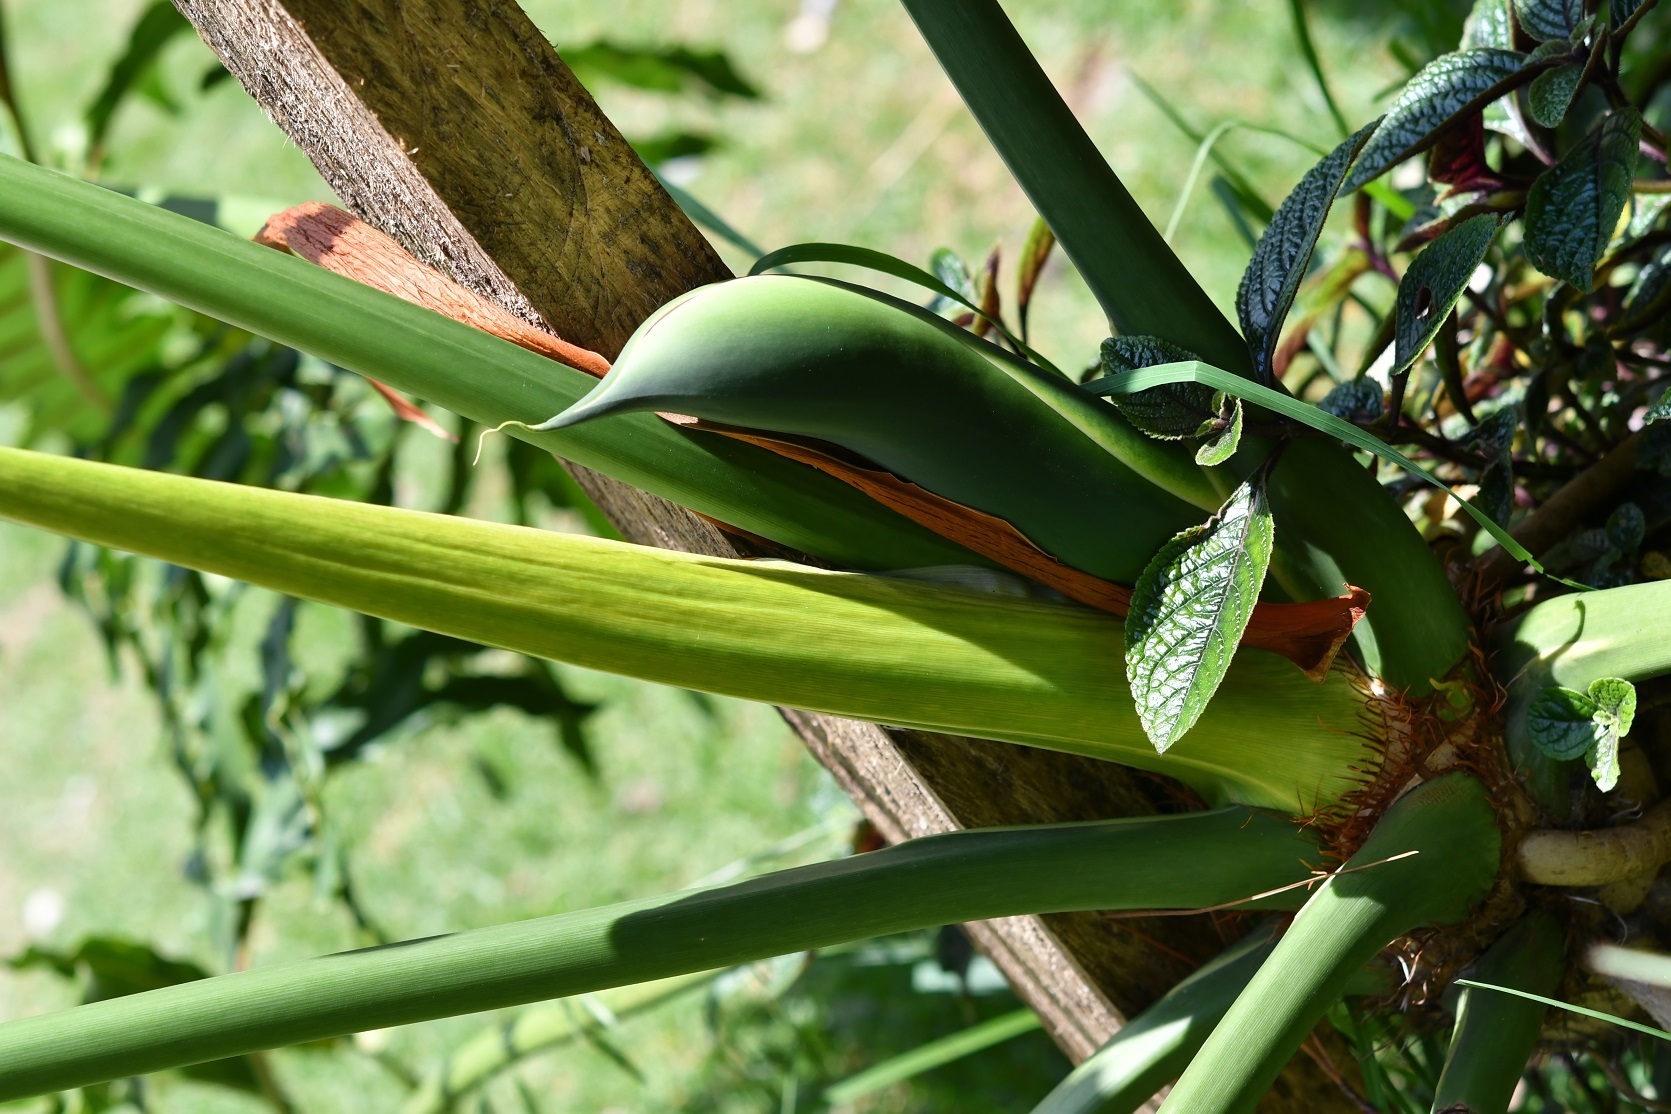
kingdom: Plantae
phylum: Tracheophyta
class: Liliopsida
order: Alismatales
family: Araceae
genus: Thaumatophyllum
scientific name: Thaumatophyllum bipinnatifidum
